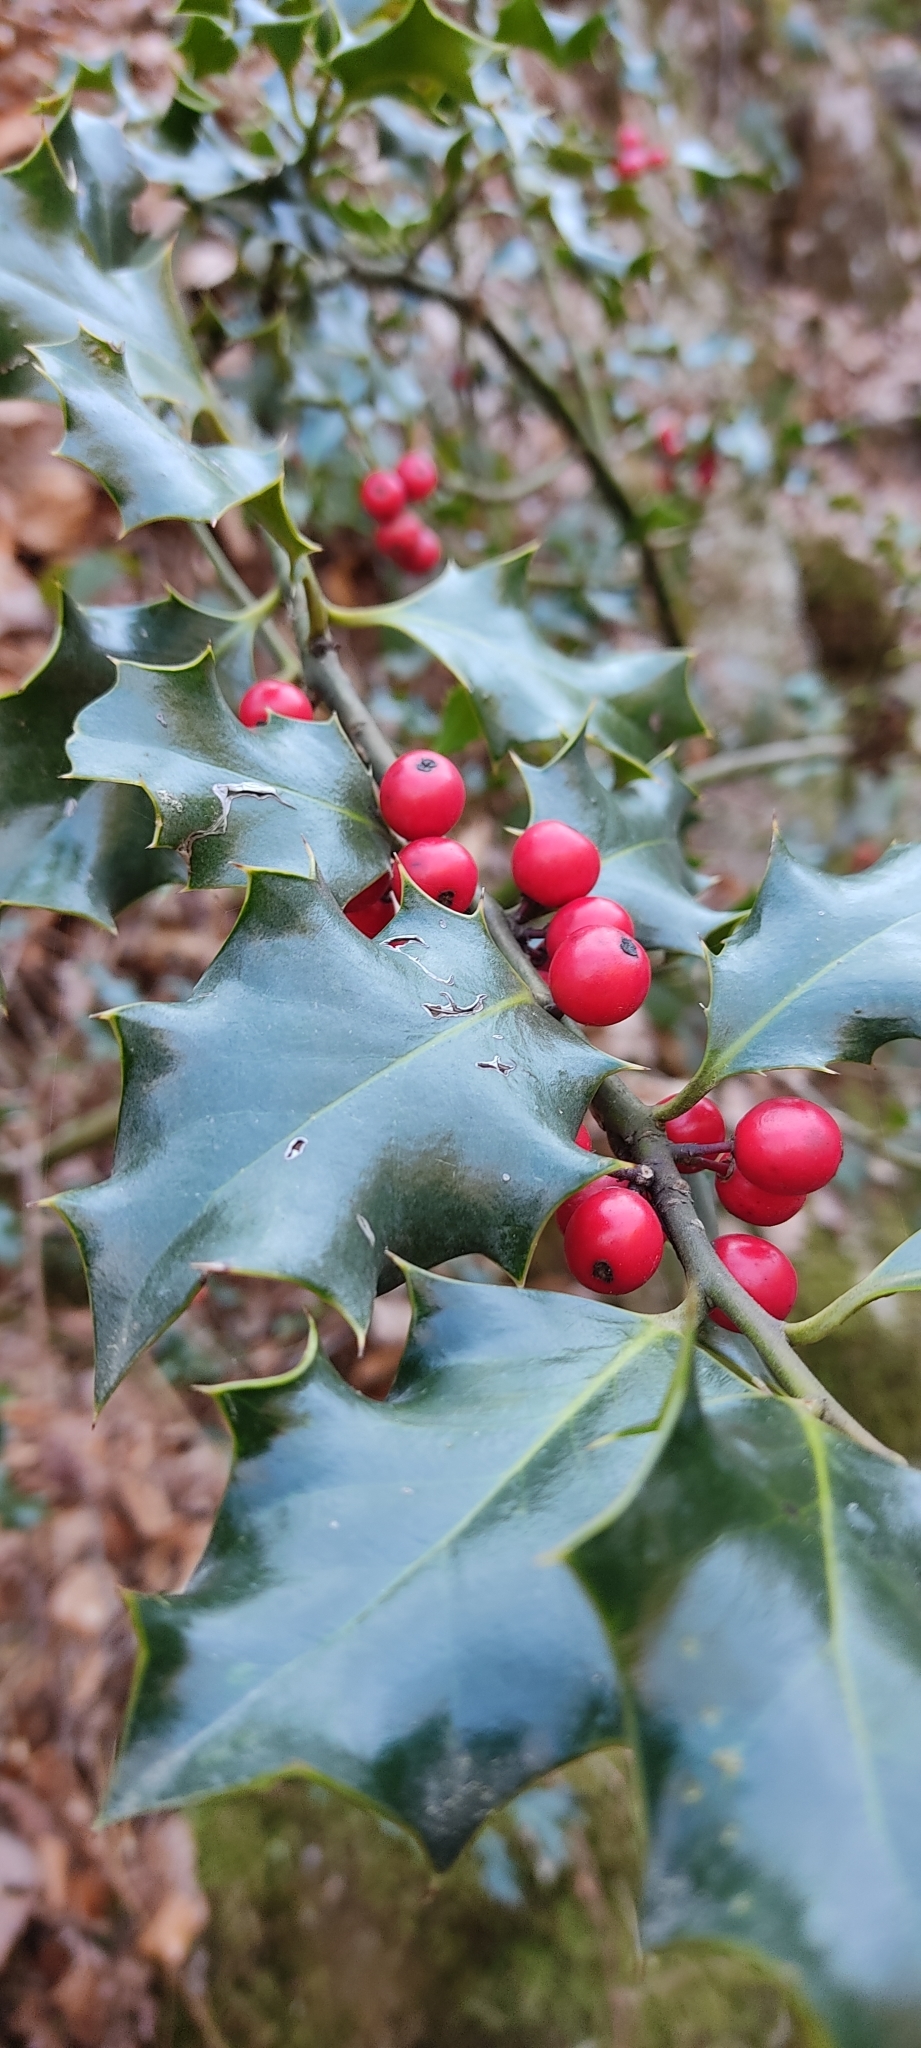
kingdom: Plantae
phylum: Tracheophyta
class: Magnoliopsida
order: Aquifoliales
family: Aquifoliaceae
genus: Ilex
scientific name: Ilex aquifolium
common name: English holly
